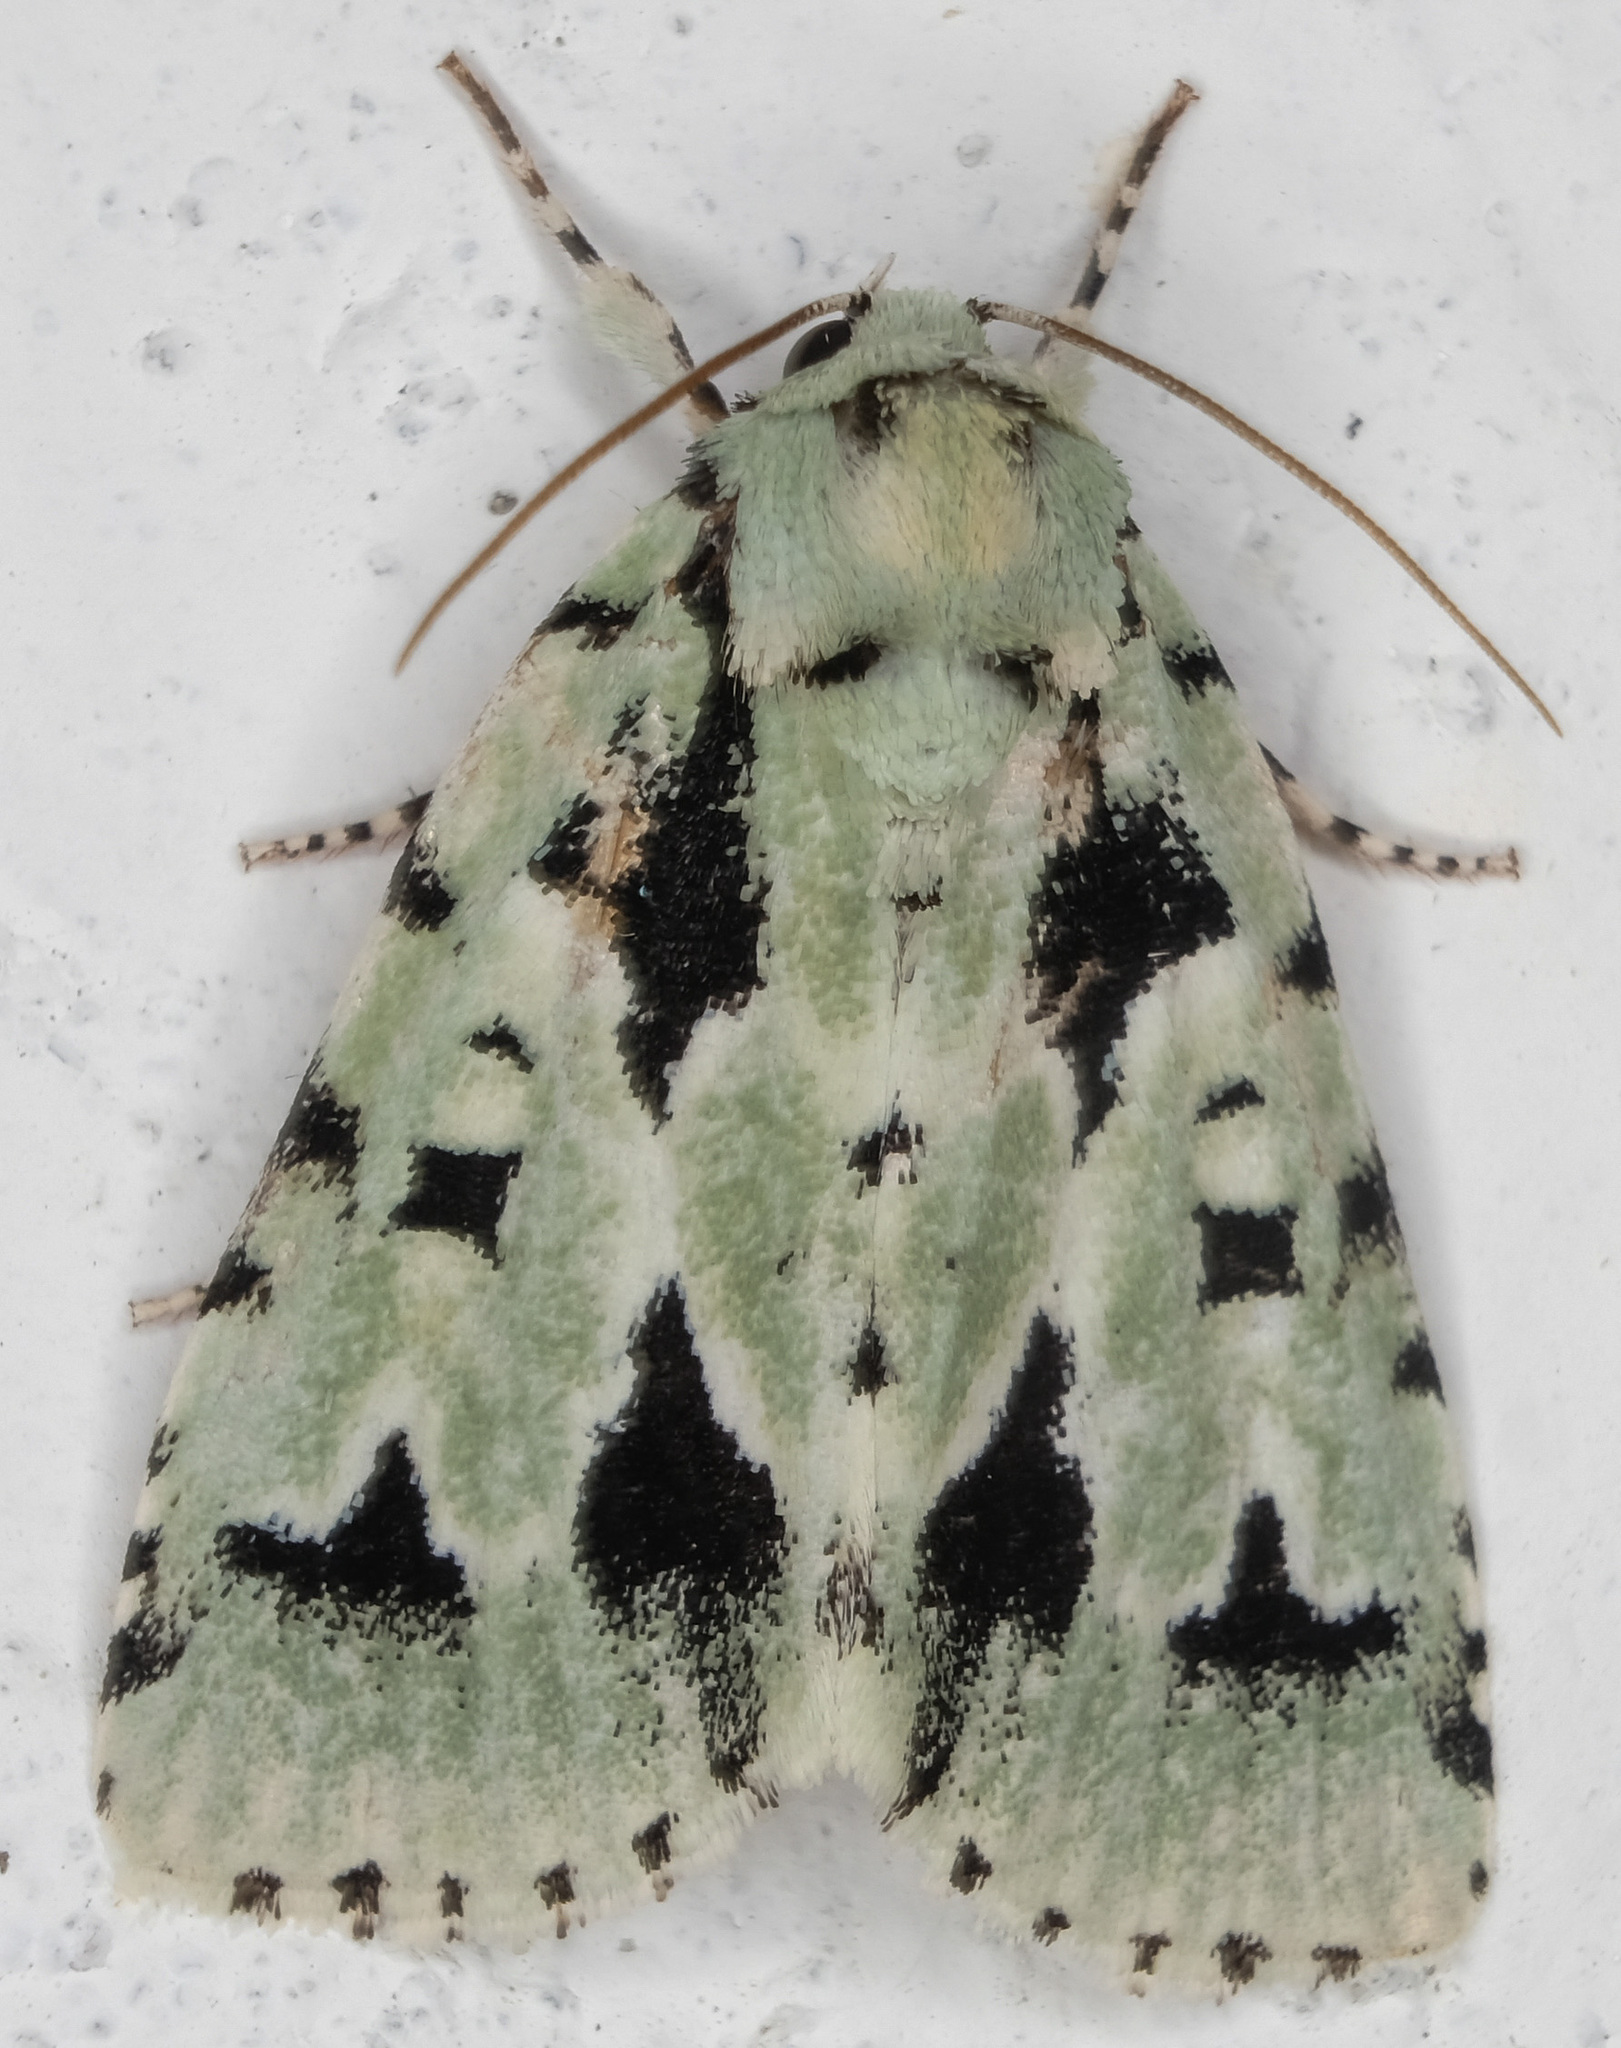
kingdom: Animalia
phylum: Arthropoda
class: Insecta
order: Lepidoptera
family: Noctuidae
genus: Acronicta
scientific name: Acronicta fallax
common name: Green marvel
